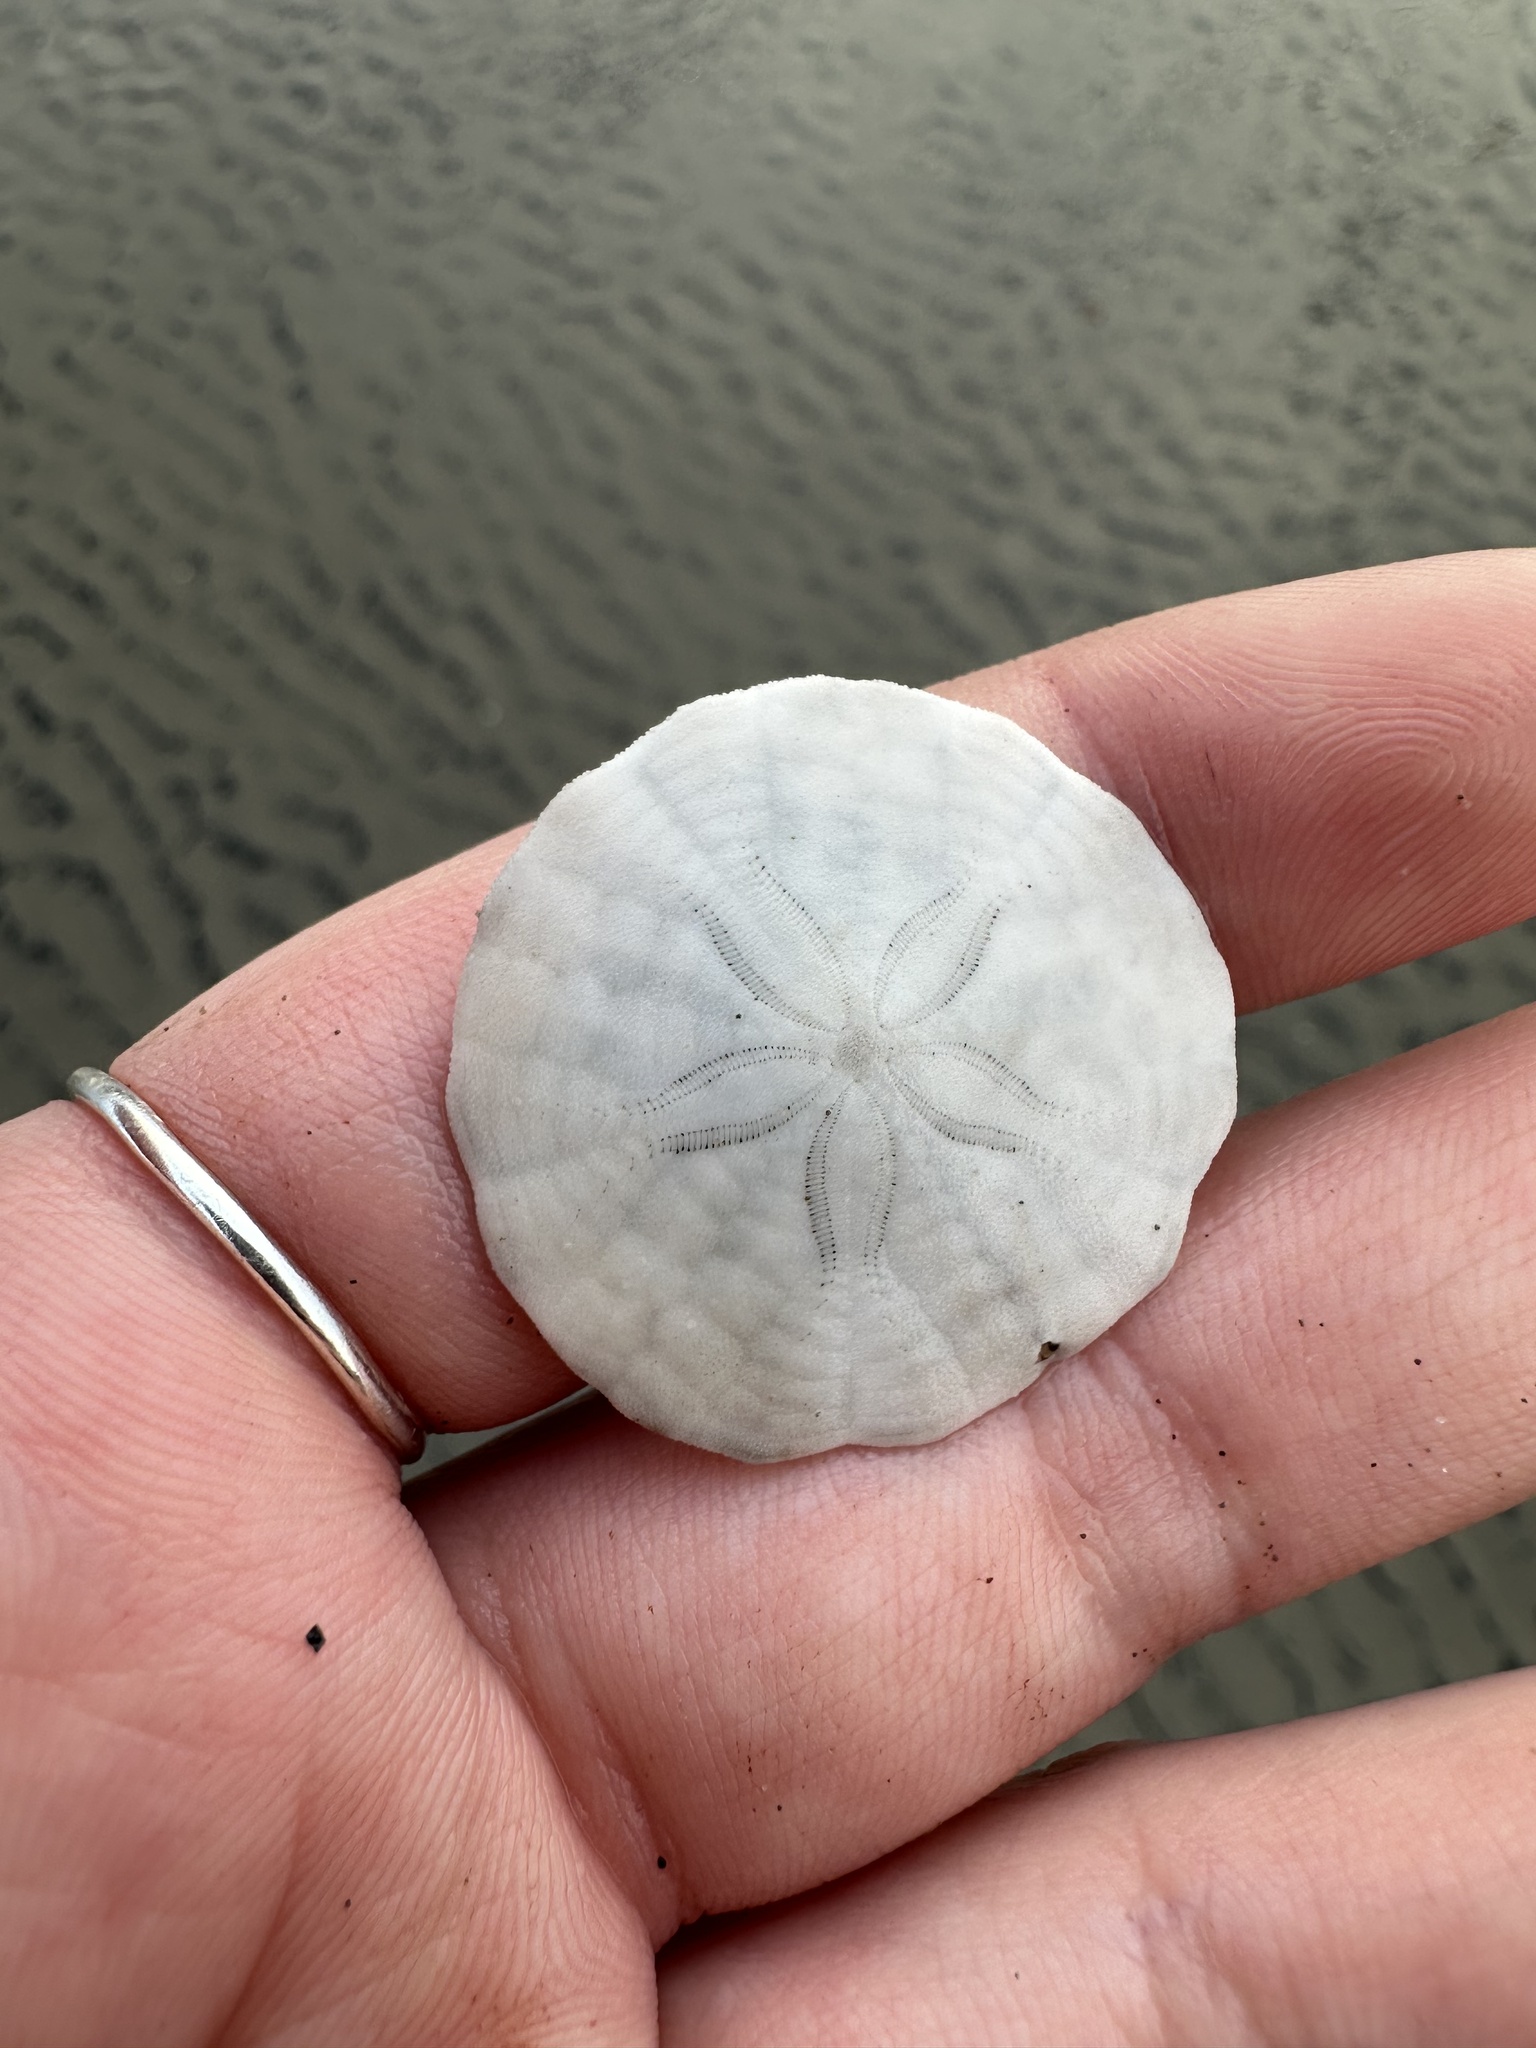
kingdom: Animalia
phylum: Echinodermata
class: Echinoidea
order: Echinolampadacea
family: Echinarachniidae
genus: Echinarachnius
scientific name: Echinarachnius parma
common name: Common sand dollar
